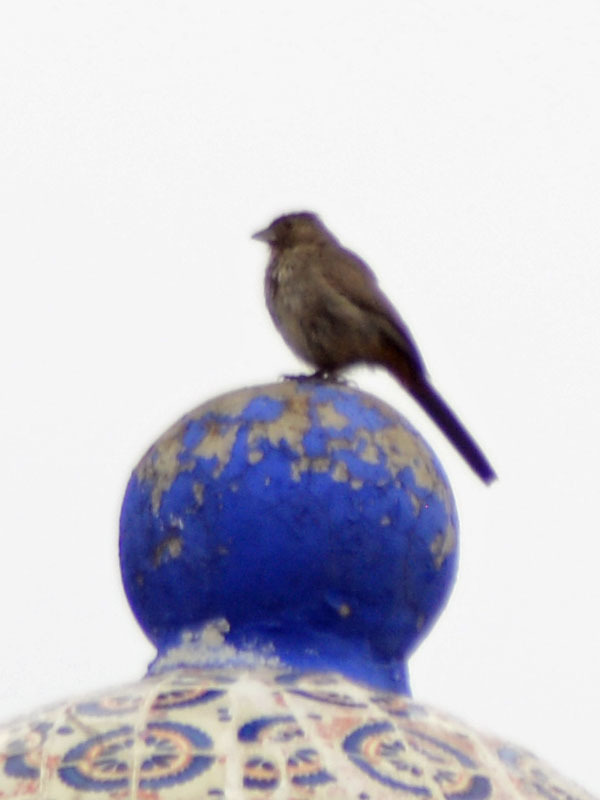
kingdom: Animalia
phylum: Chordata
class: Aves
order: Passeriformes
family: Passerellidae
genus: Melozone
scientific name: Melozone fusca
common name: Canyon towhee
